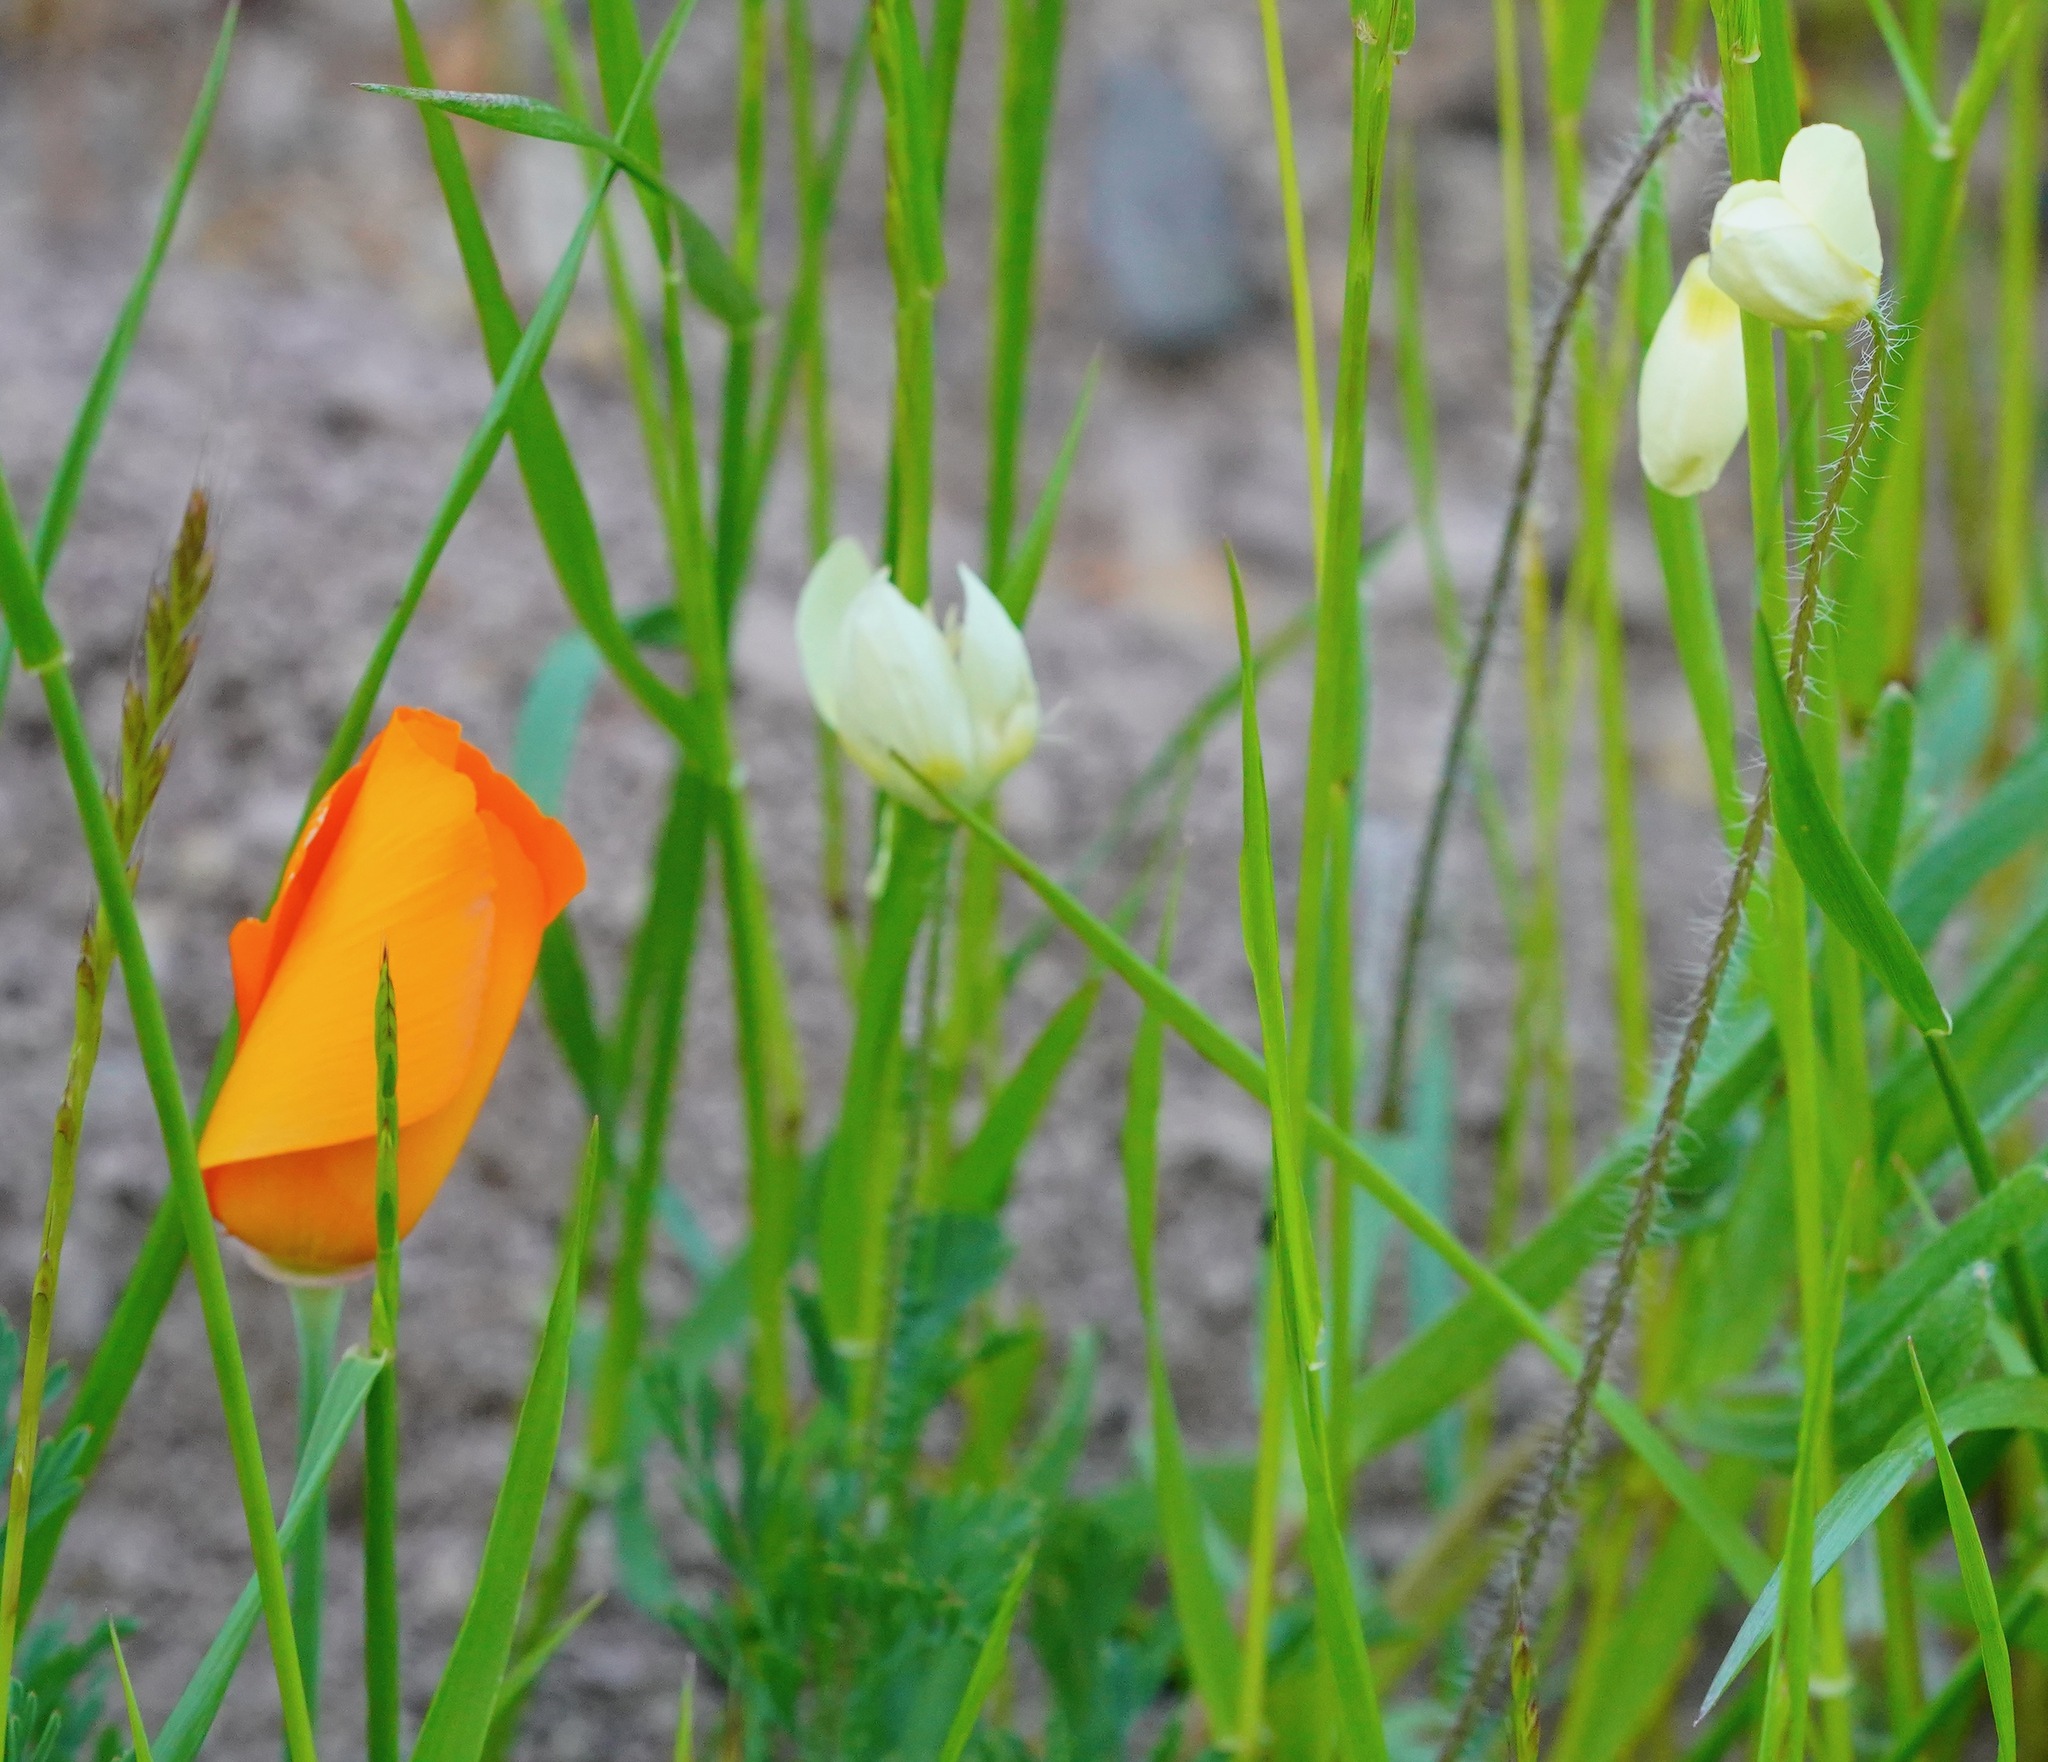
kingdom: Plantae
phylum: Tracheophyta
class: Magnoliopsida
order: Ranunculales
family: Papaveraceae
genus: Platystemon
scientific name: Platystemon californicus
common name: Cream-cups
